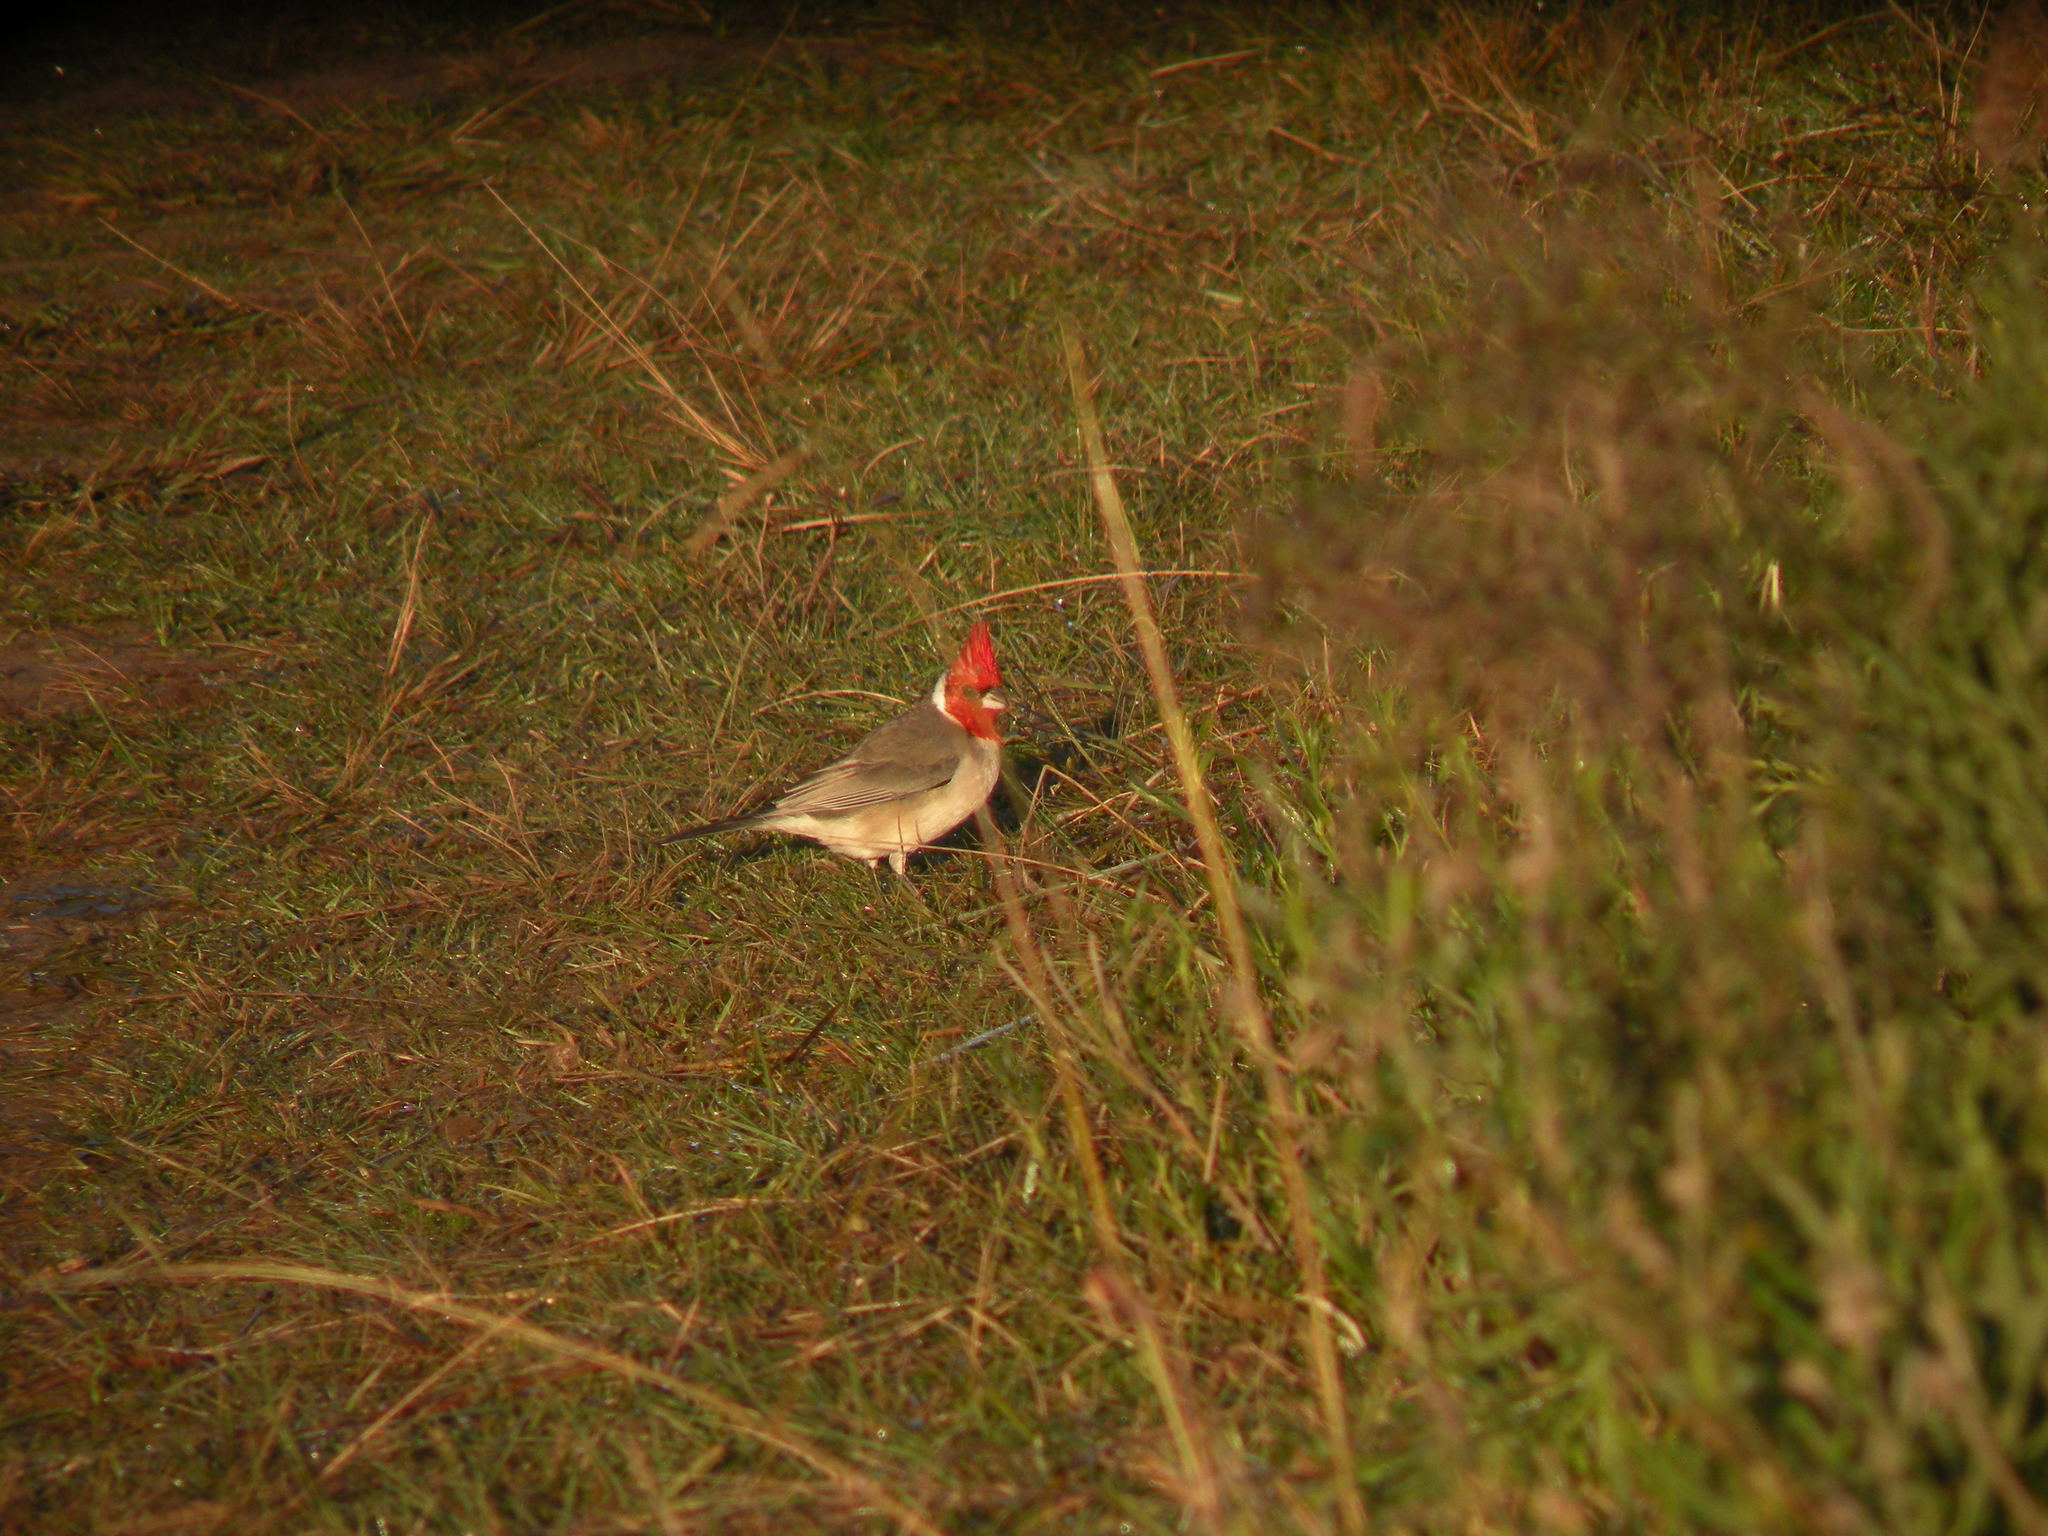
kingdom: Animalia
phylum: Chordata
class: Aves
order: Passeriformes
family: Thraupidae
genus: Paroaria
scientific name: Paroaria coronata
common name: Red-crested cardinal
